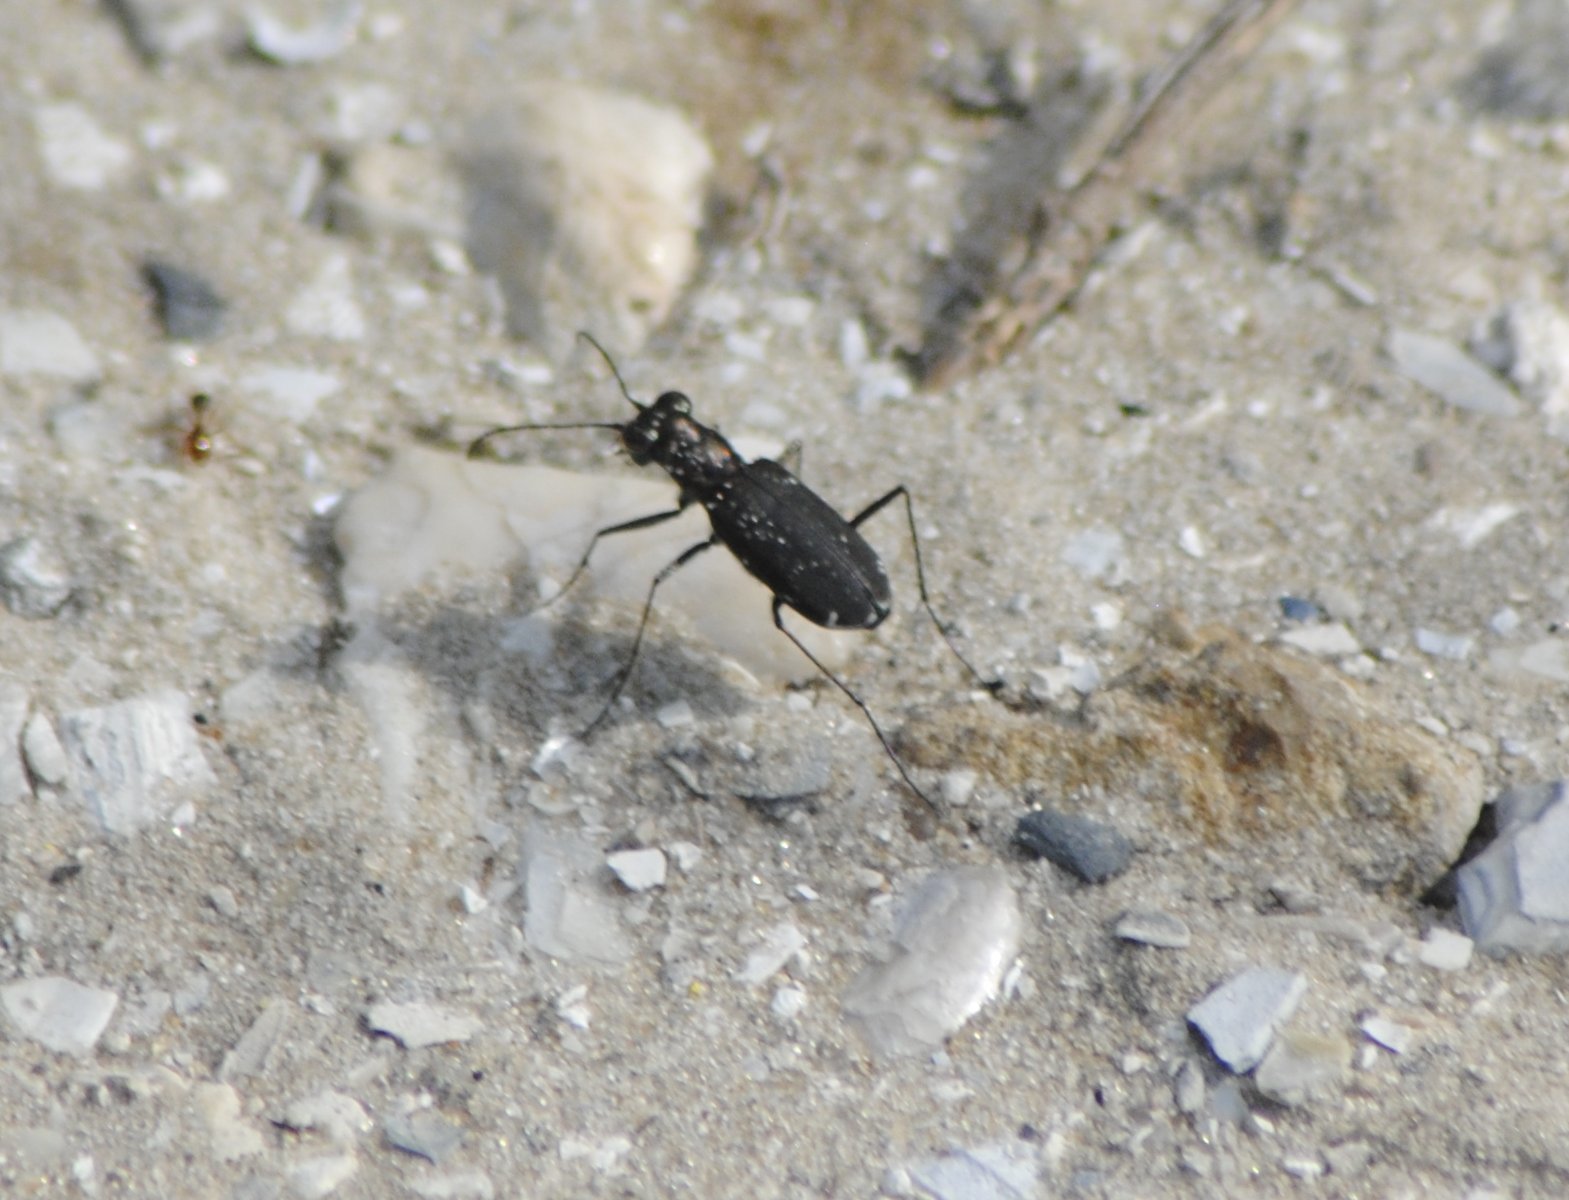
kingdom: Animalia
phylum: Arthropoda
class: Insecta
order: Coleoptera
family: Carabidae
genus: Cicindela
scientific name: Cicindela punctulata
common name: Punctured tiger beetle
